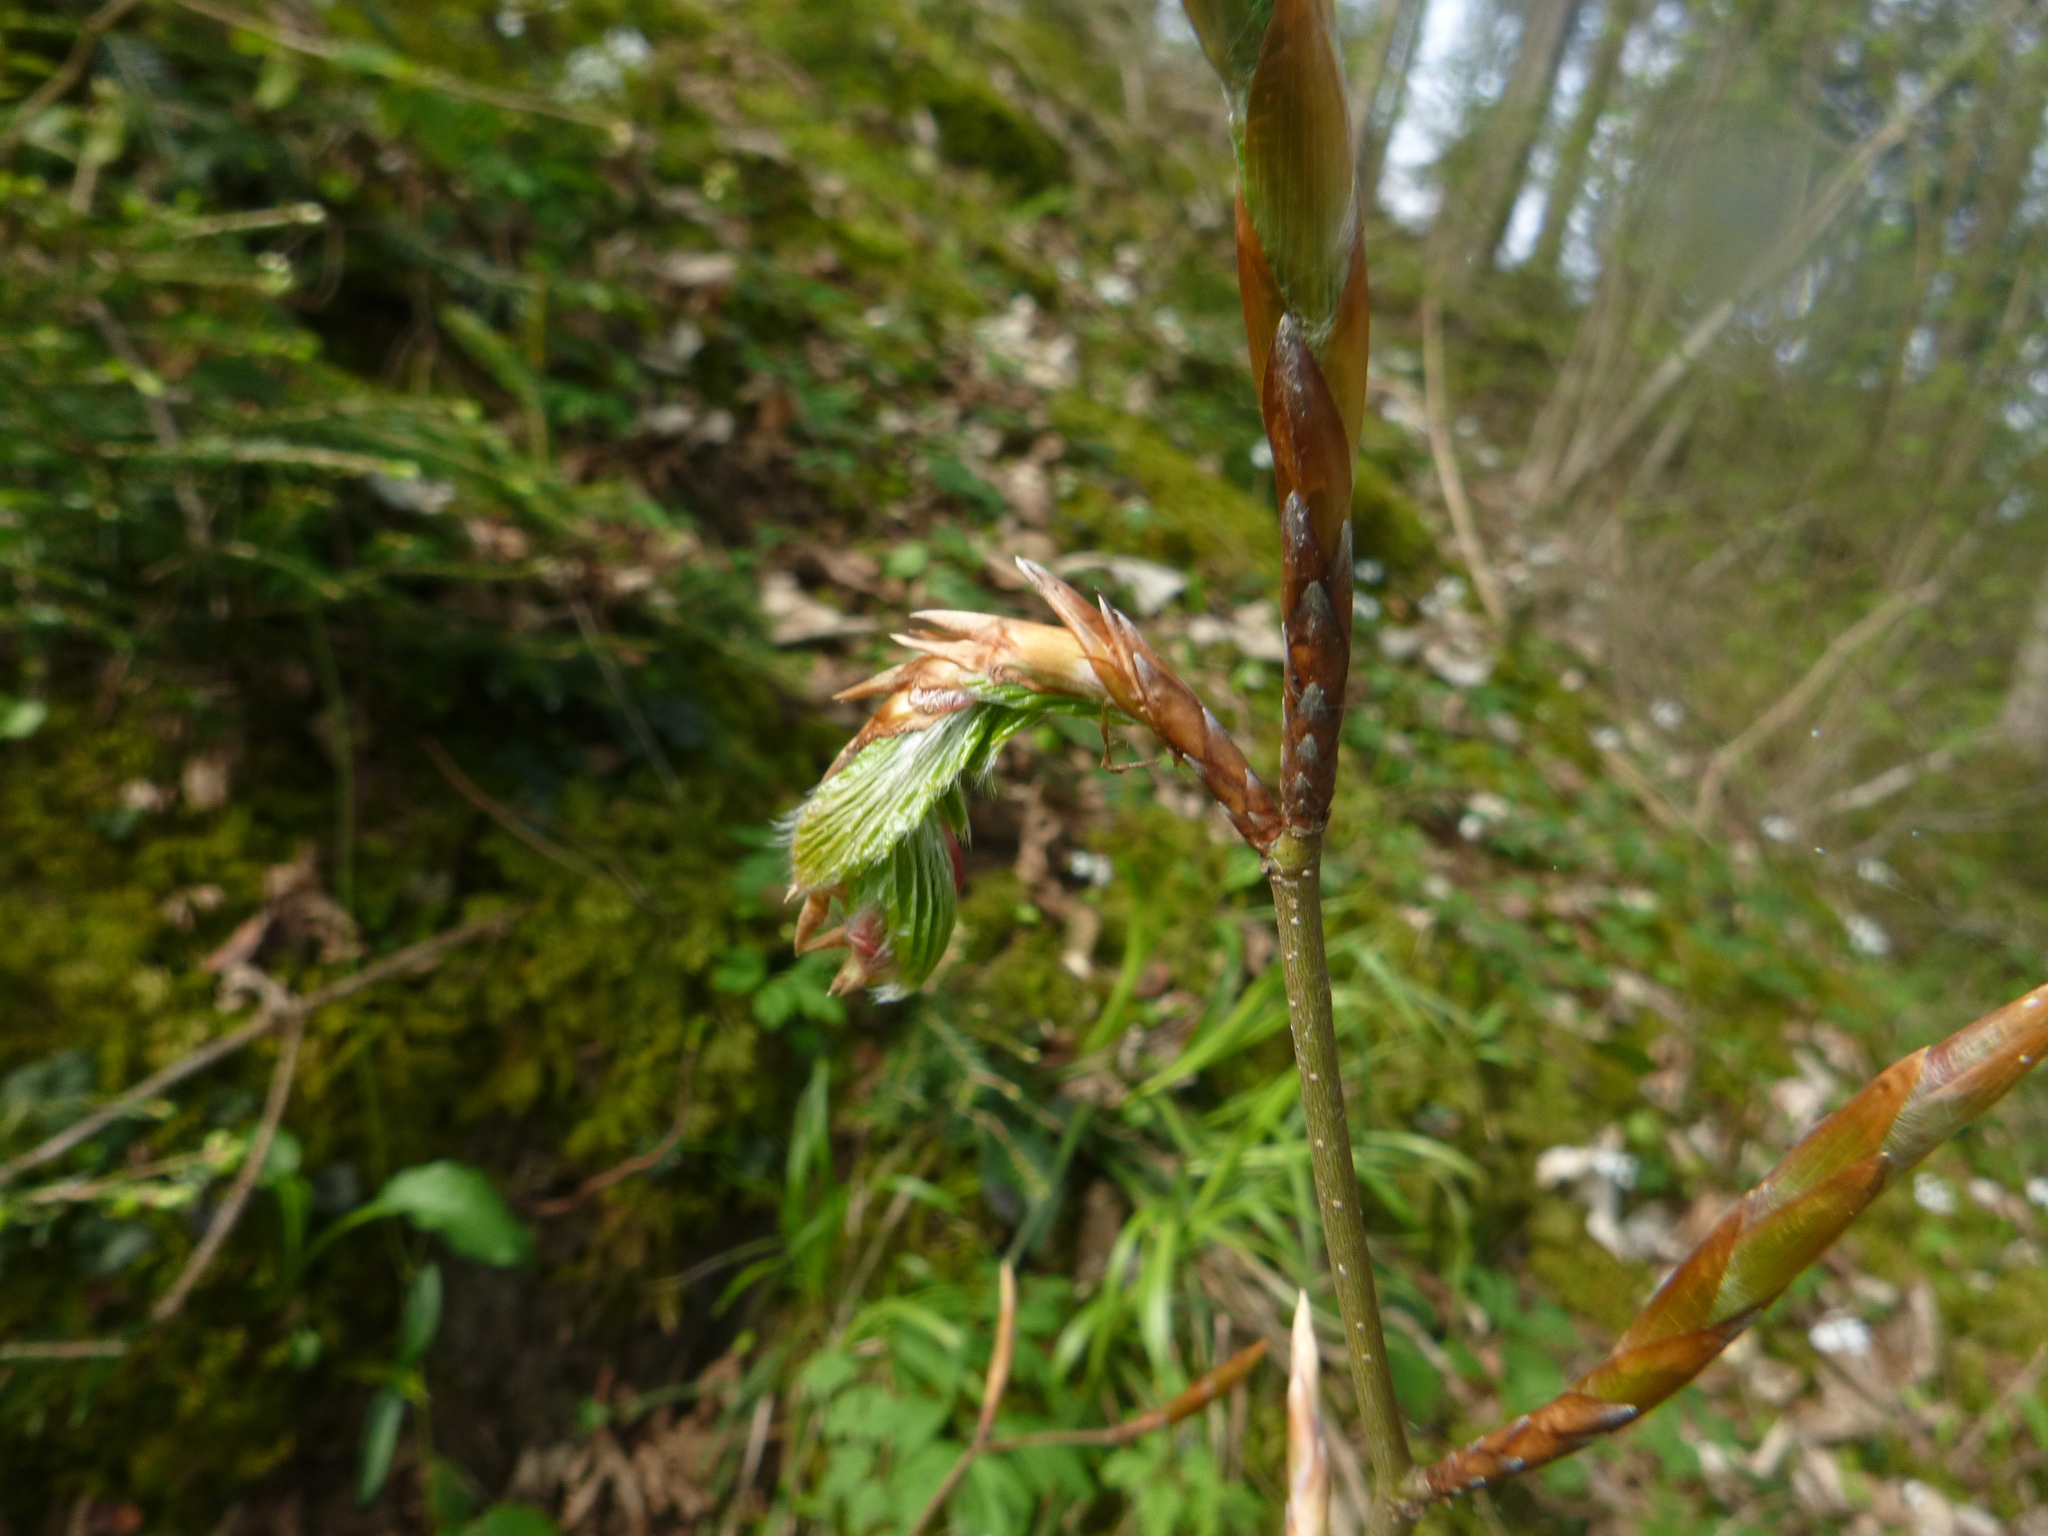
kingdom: Plantae
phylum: Tracheophyta
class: Magnoliopsida
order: Fagales
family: Fagaceae
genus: Fagus
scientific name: Fagus sylvatica
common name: Beech
